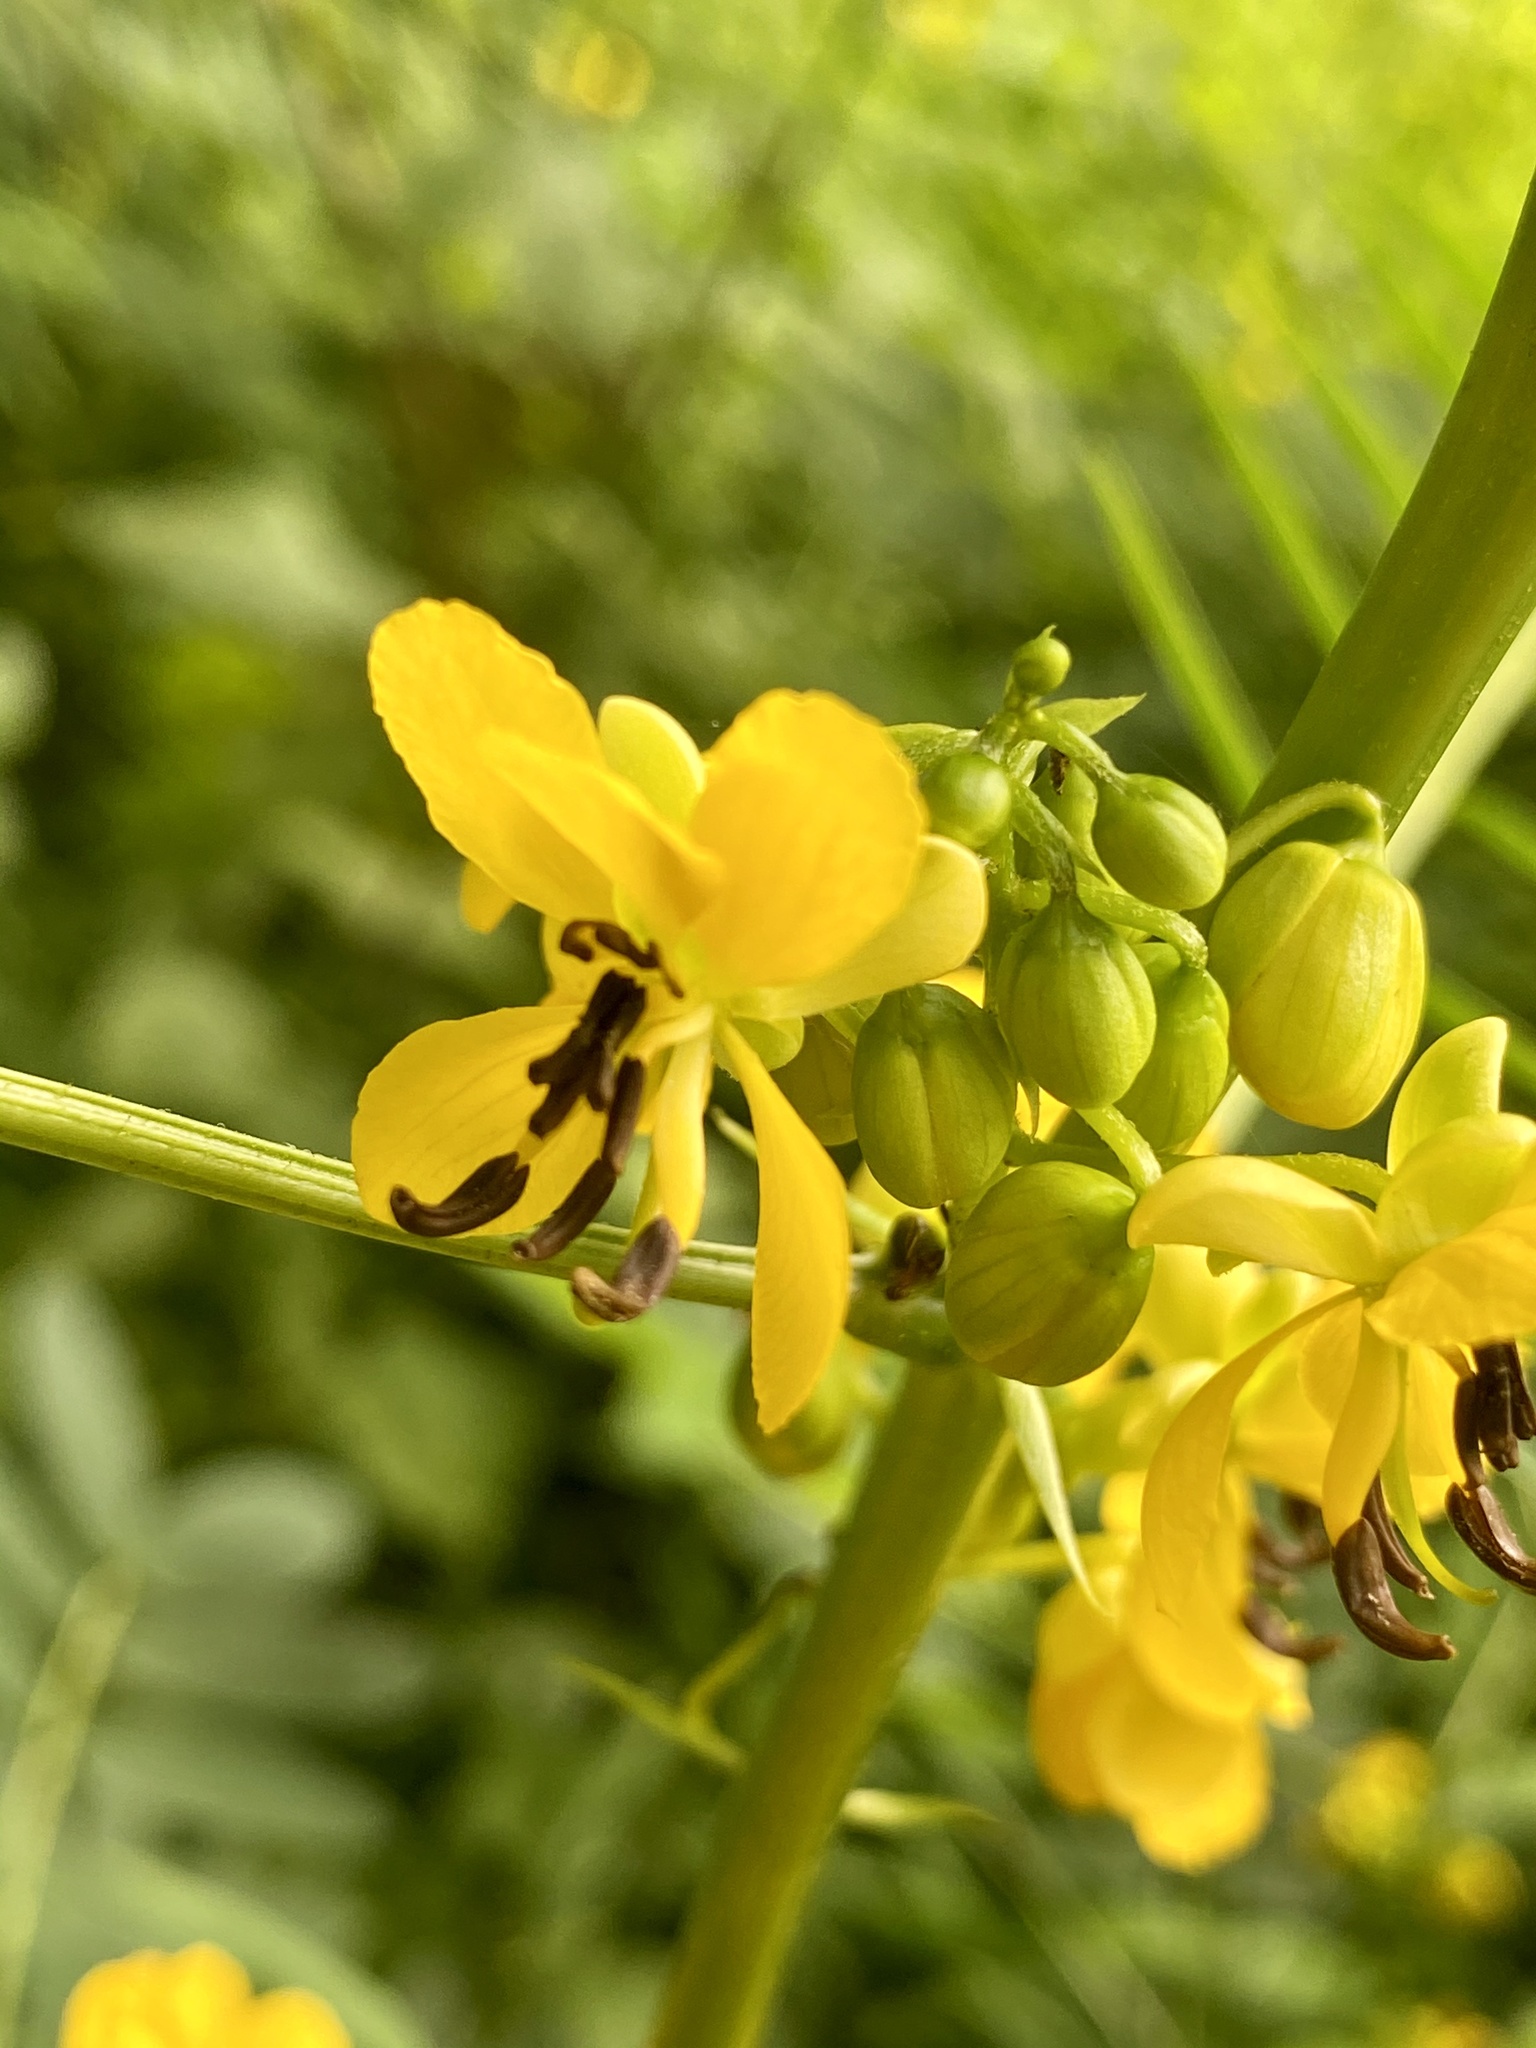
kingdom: Plantae
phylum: Tracheophyta
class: Magnoliopsida
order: Fabales
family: Fabaceae
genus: Senna
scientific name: Senna marilandica
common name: American senna
